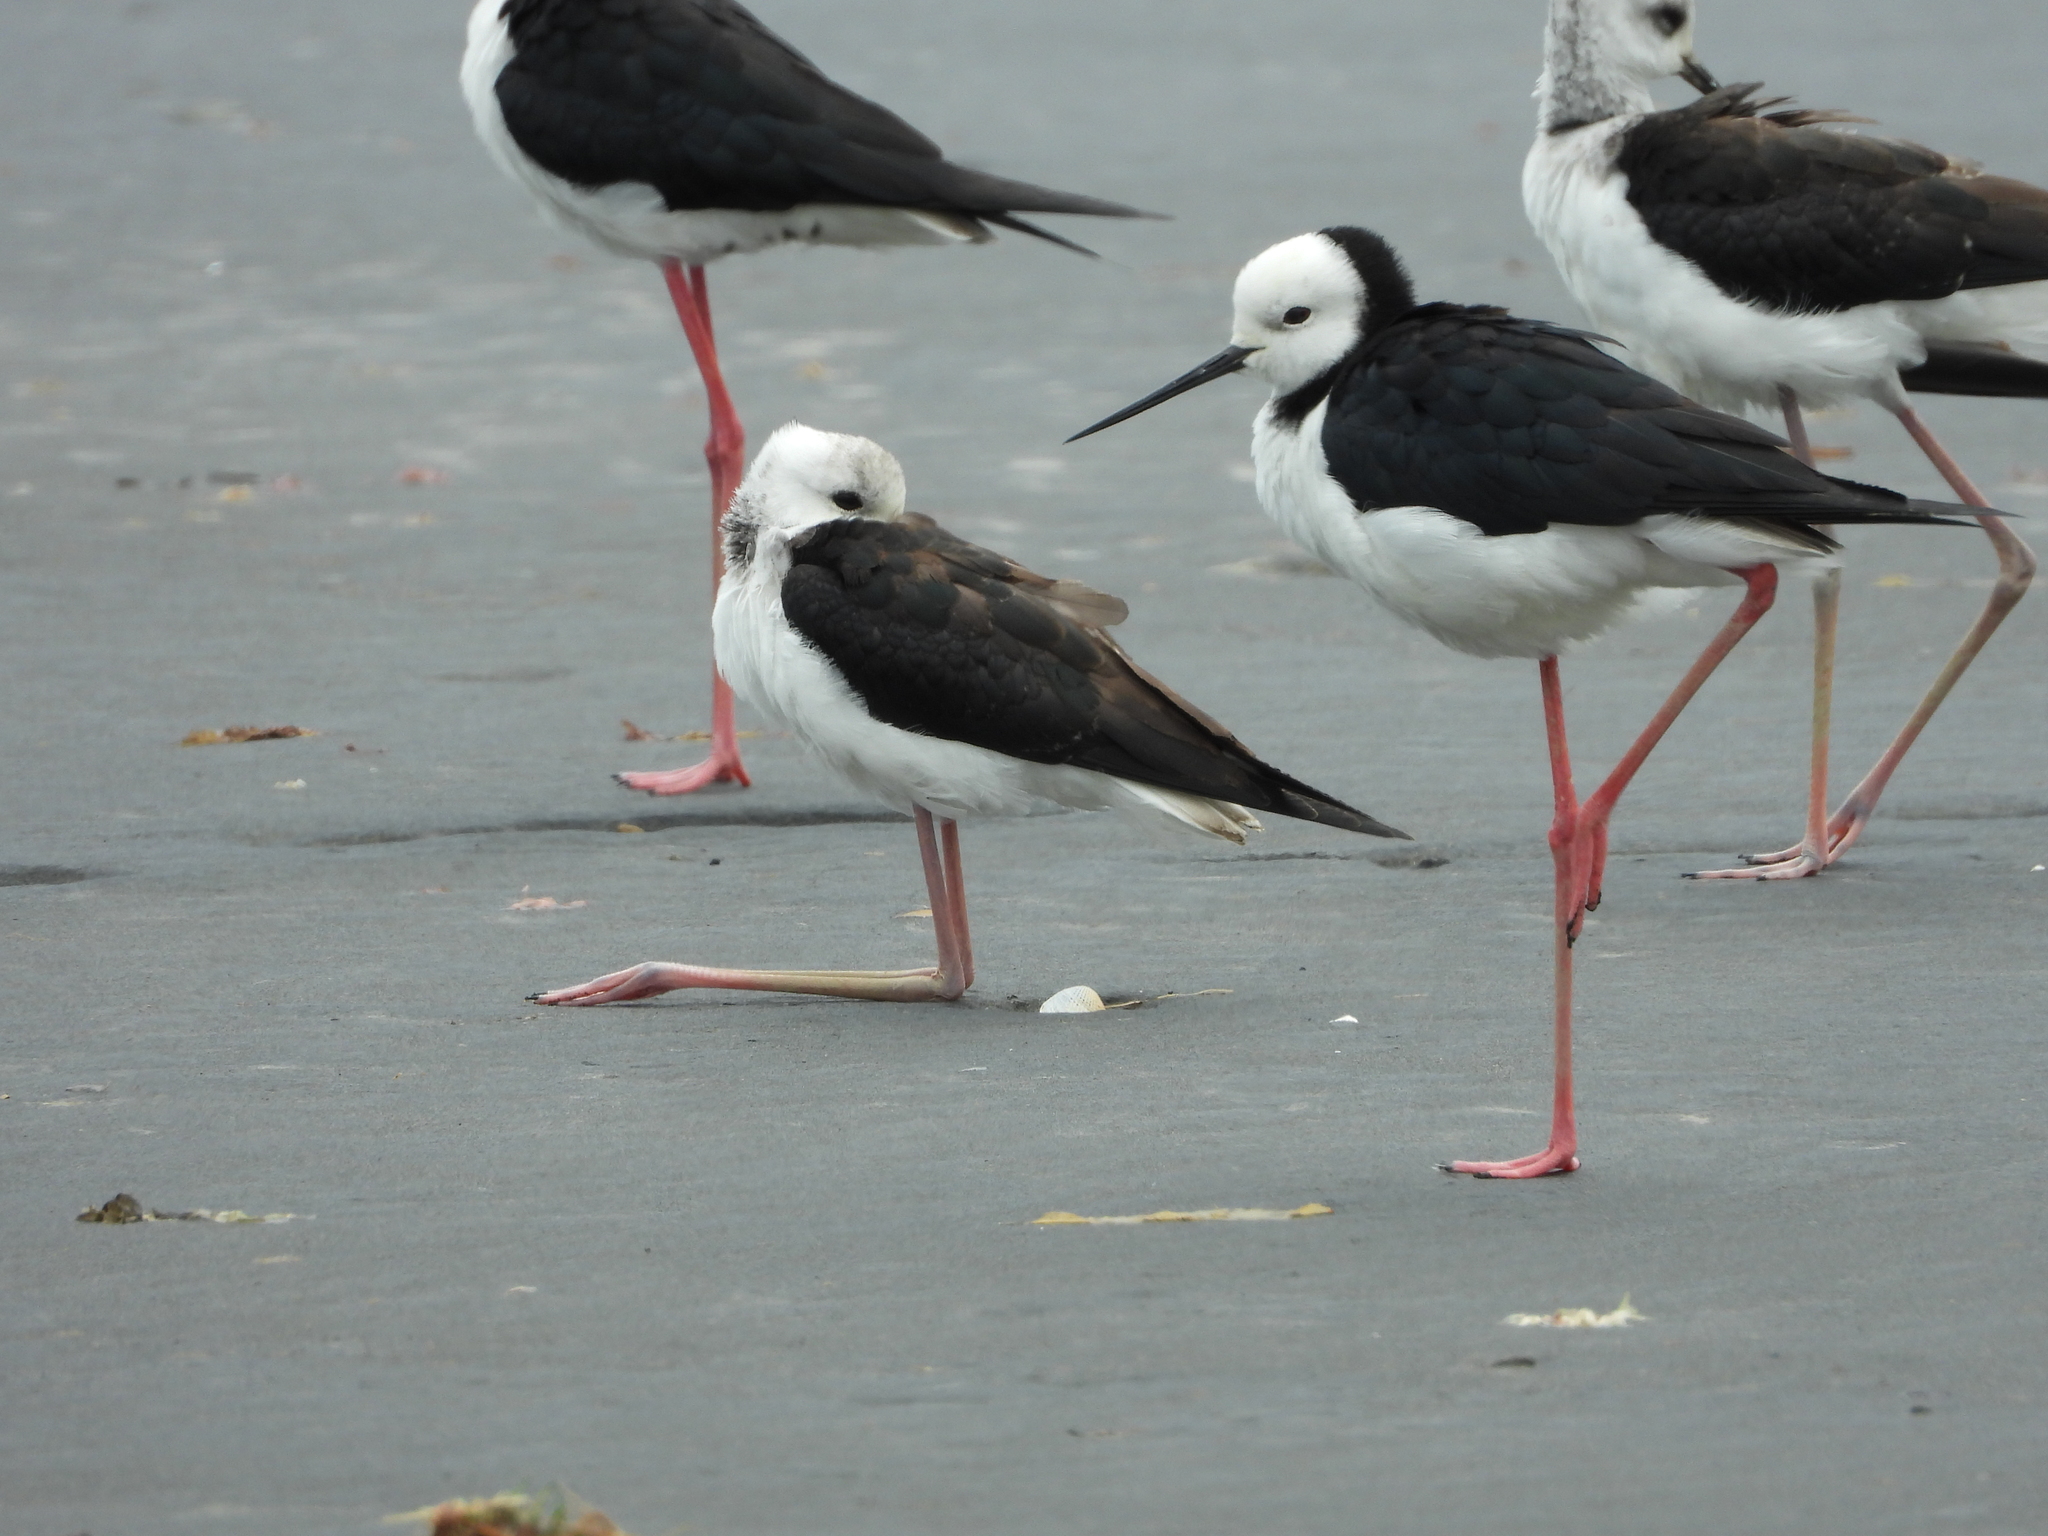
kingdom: Animalia
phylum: Chordata
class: Aves
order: Charadriiformes
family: Recurvirostridae
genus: Himantopus
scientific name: Himantopus leucocephalus
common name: White-headed stilt
